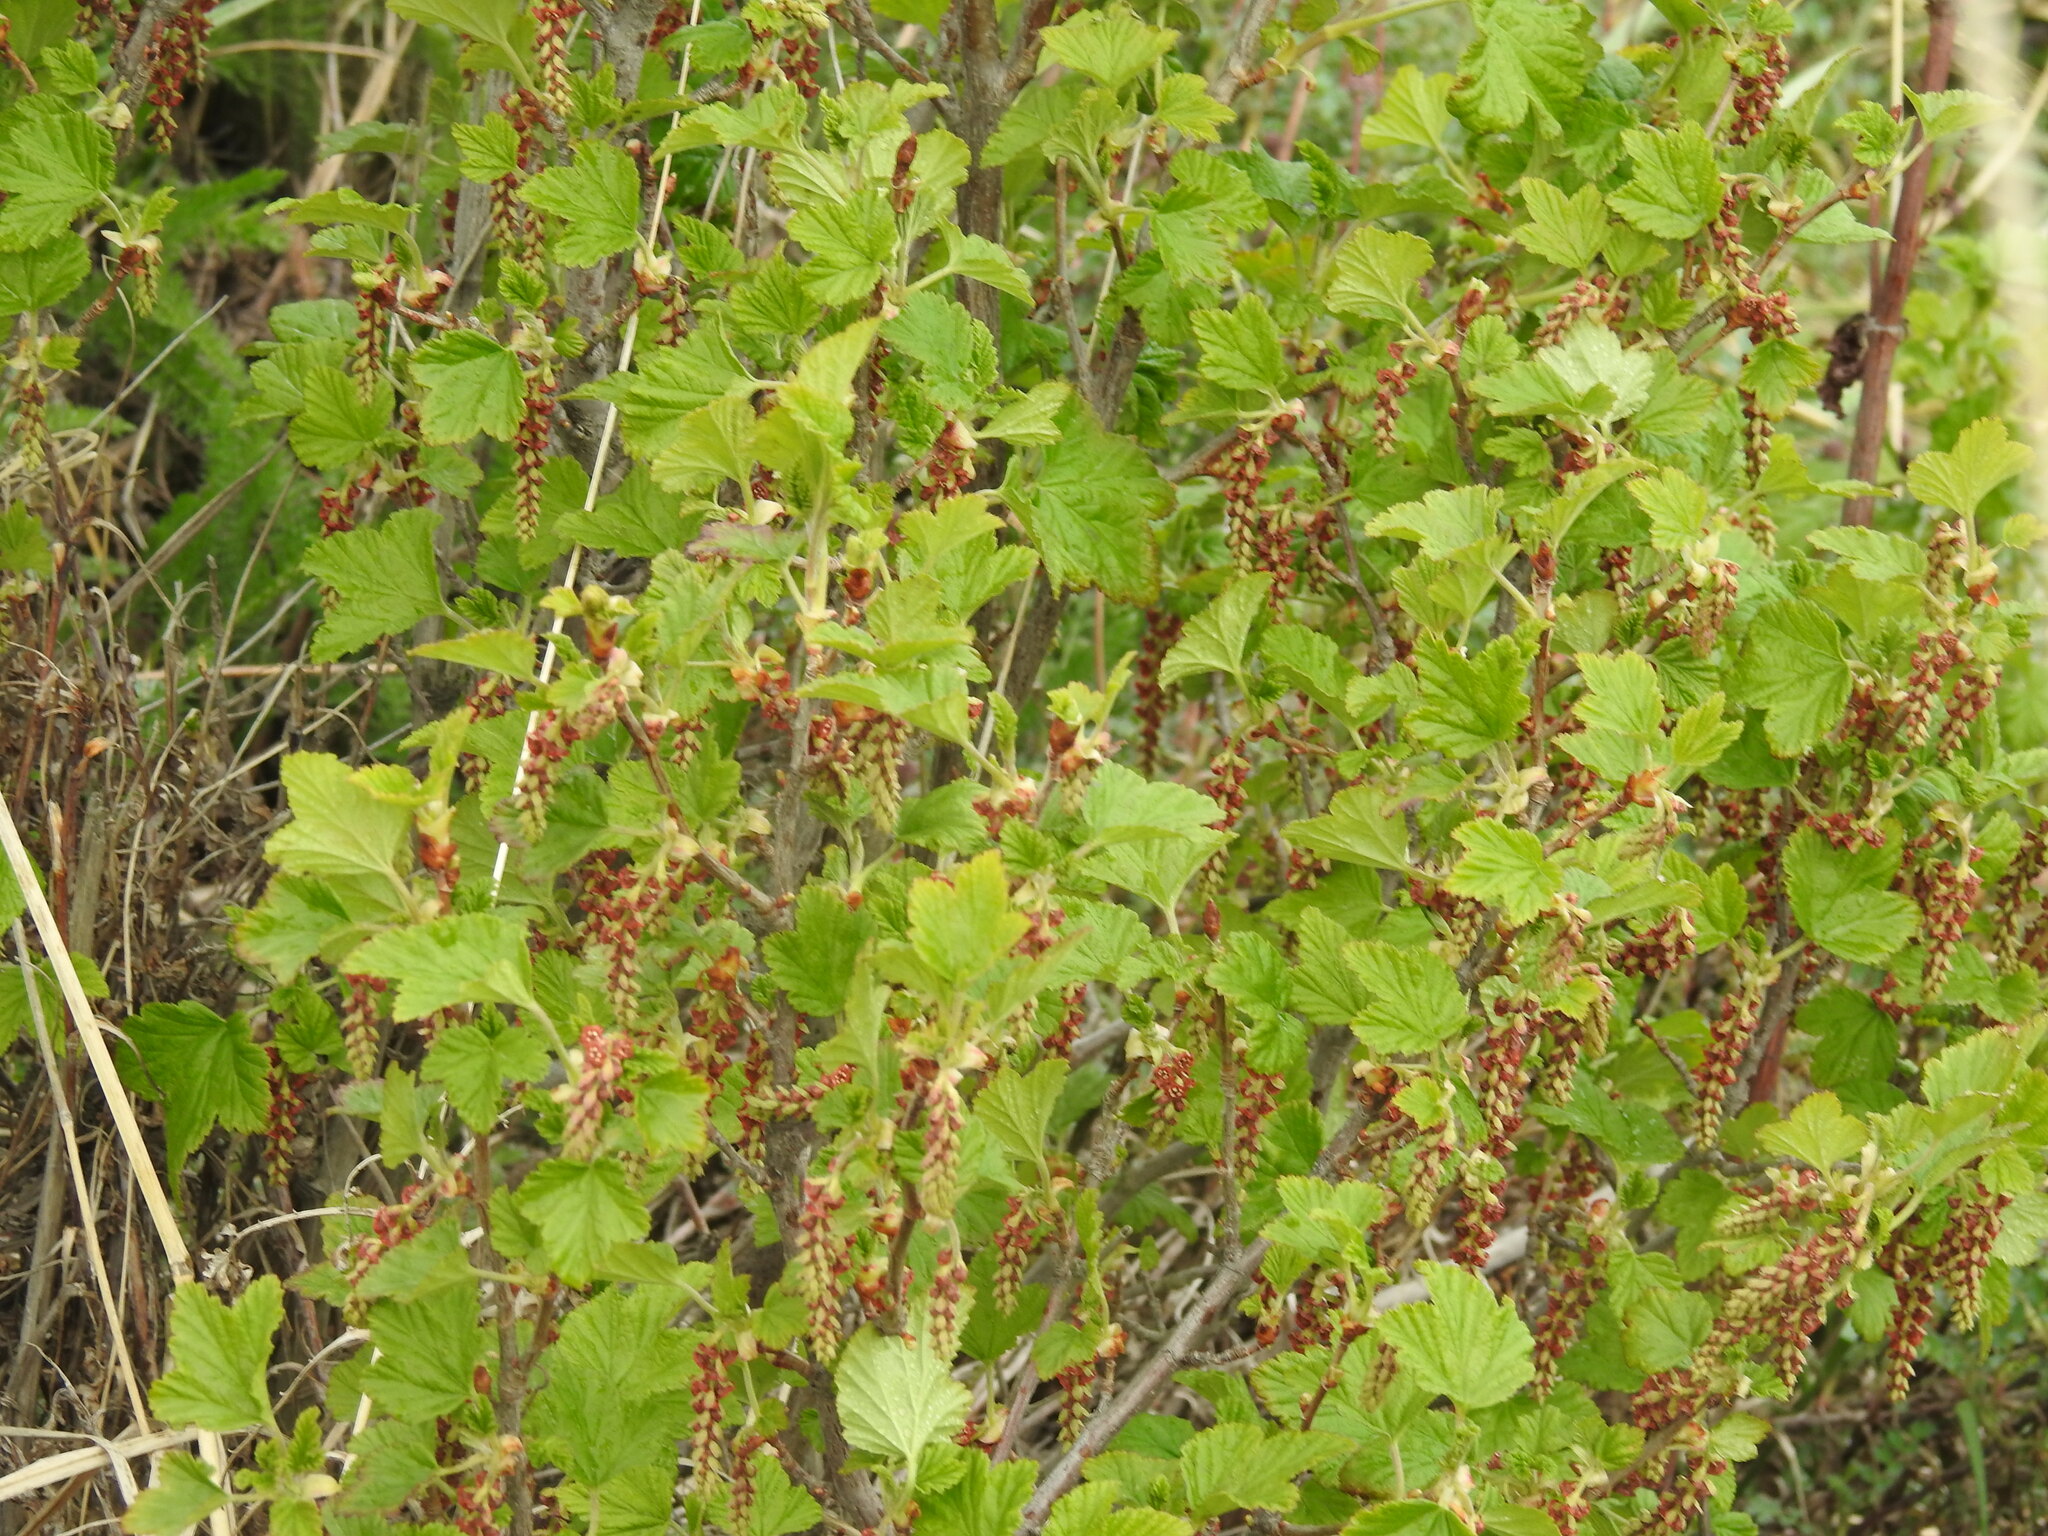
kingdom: Plantae
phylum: Tracheophyta
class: Magnoliopsida
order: Saxifragales
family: Grossulariaceae
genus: Ribes
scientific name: Ribes magellanicum
